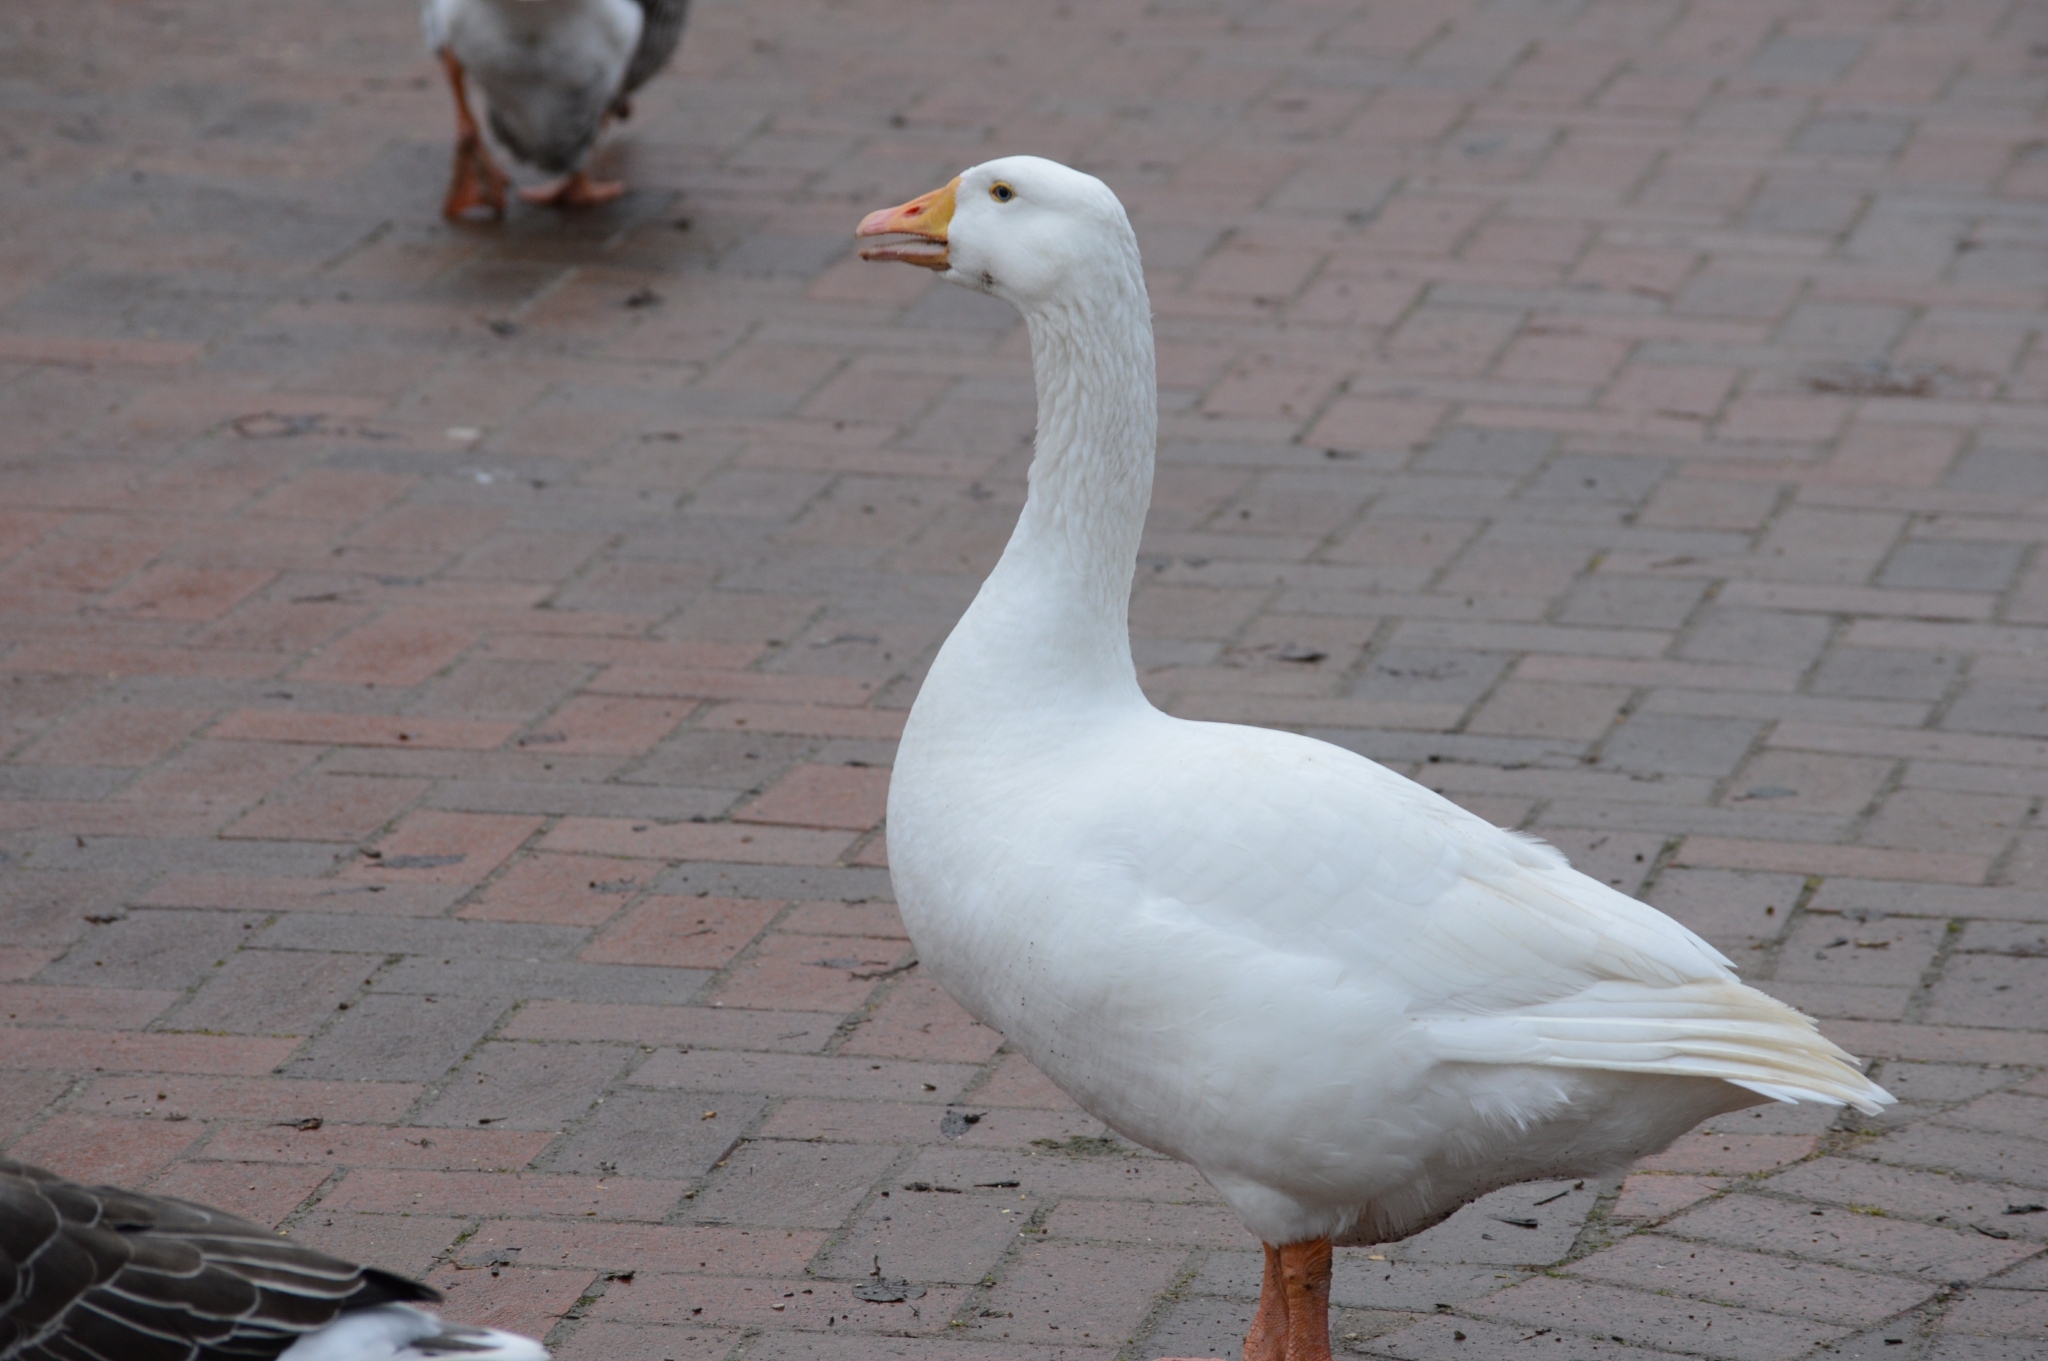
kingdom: Animalia
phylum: Chordata
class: Aves
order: Anseriformes
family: Anatidae
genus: Anser
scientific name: Anser
